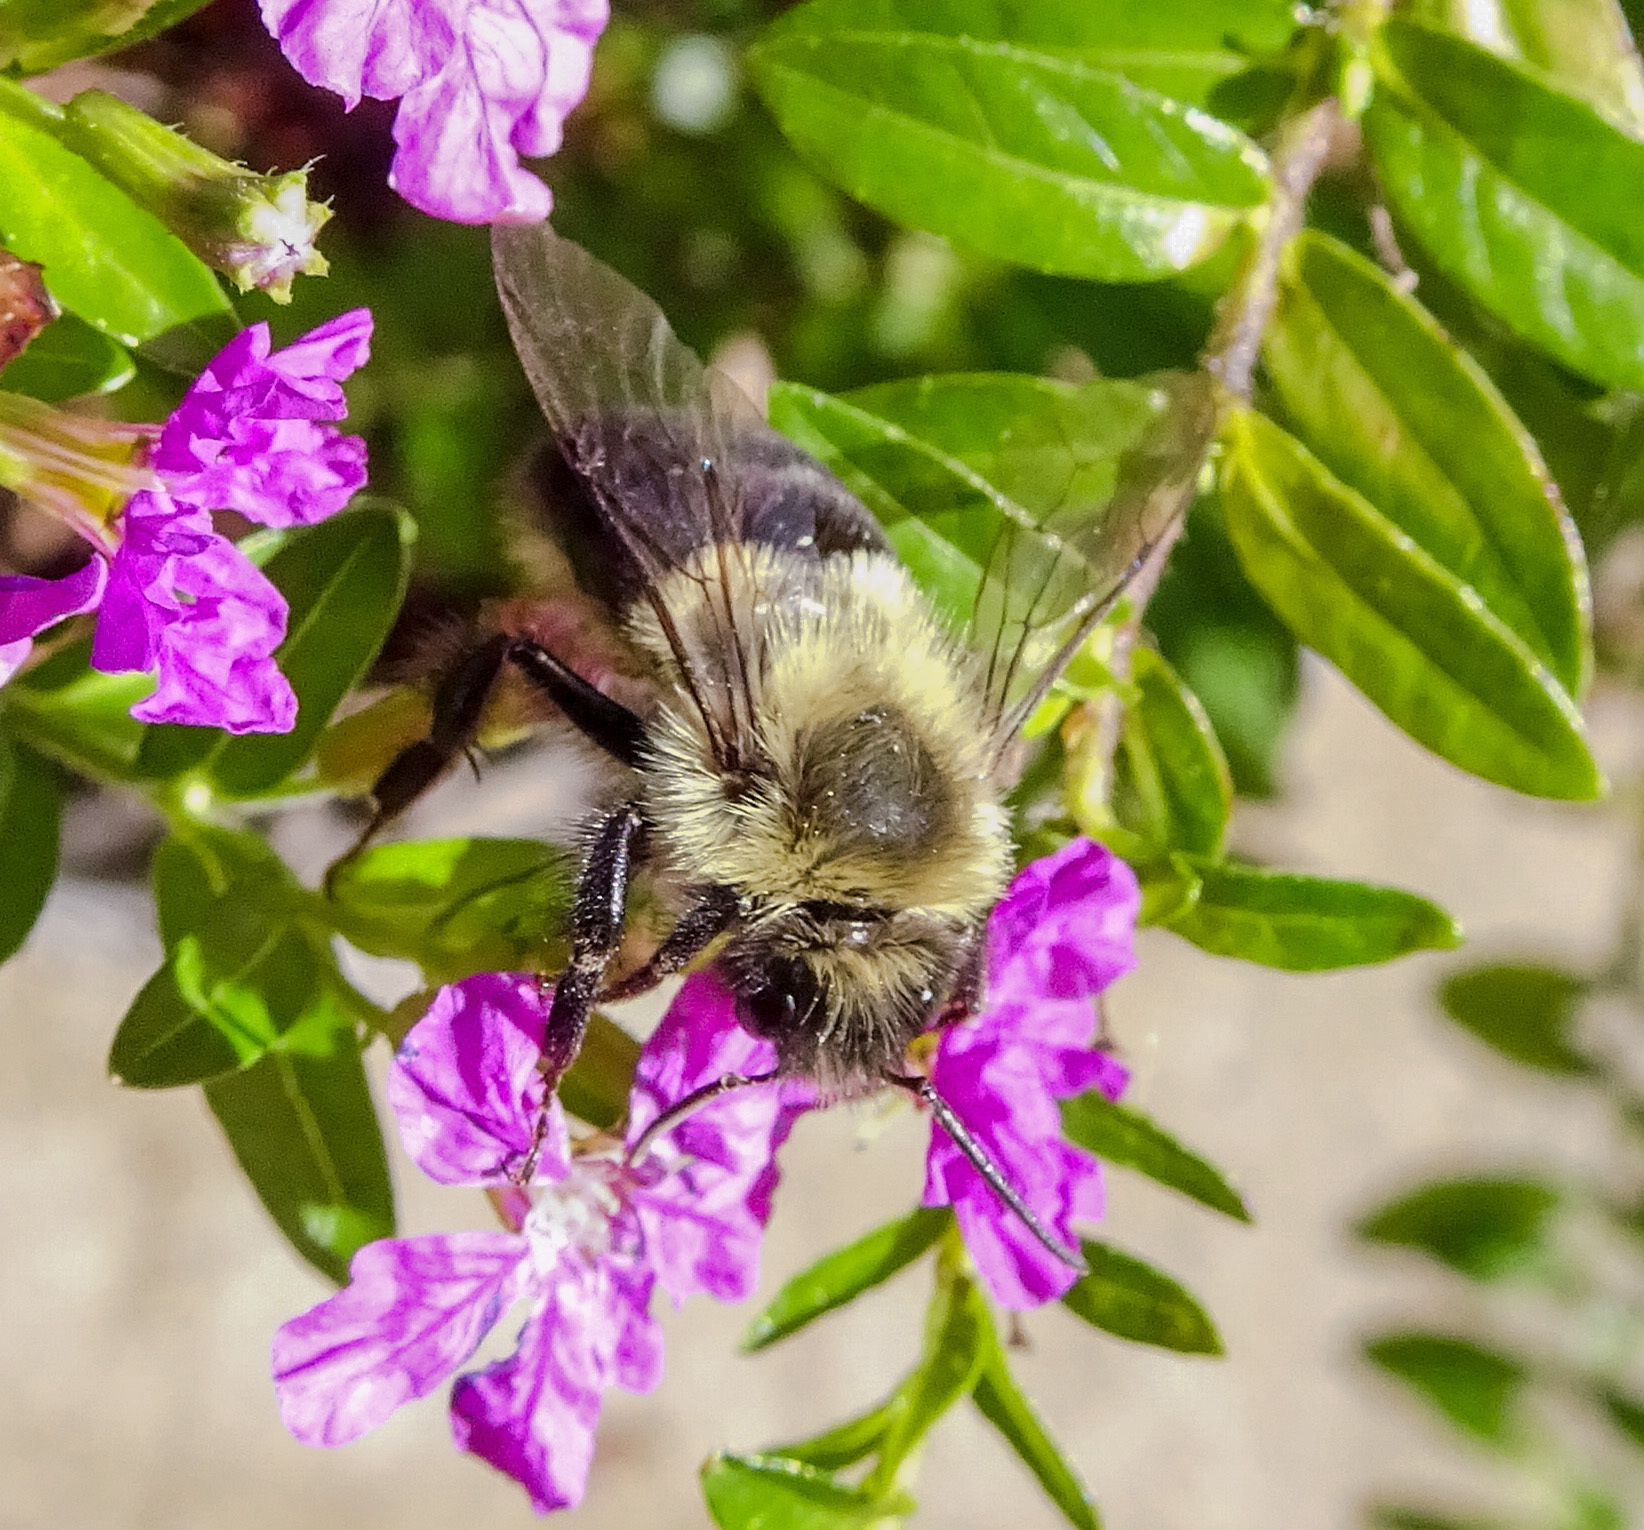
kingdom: Animalia
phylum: Arthropoda
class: Insecta
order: Hymenoptera
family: Apidae
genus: Bombus
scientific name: Bombus impatiens
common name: Common eastern bumble bee
